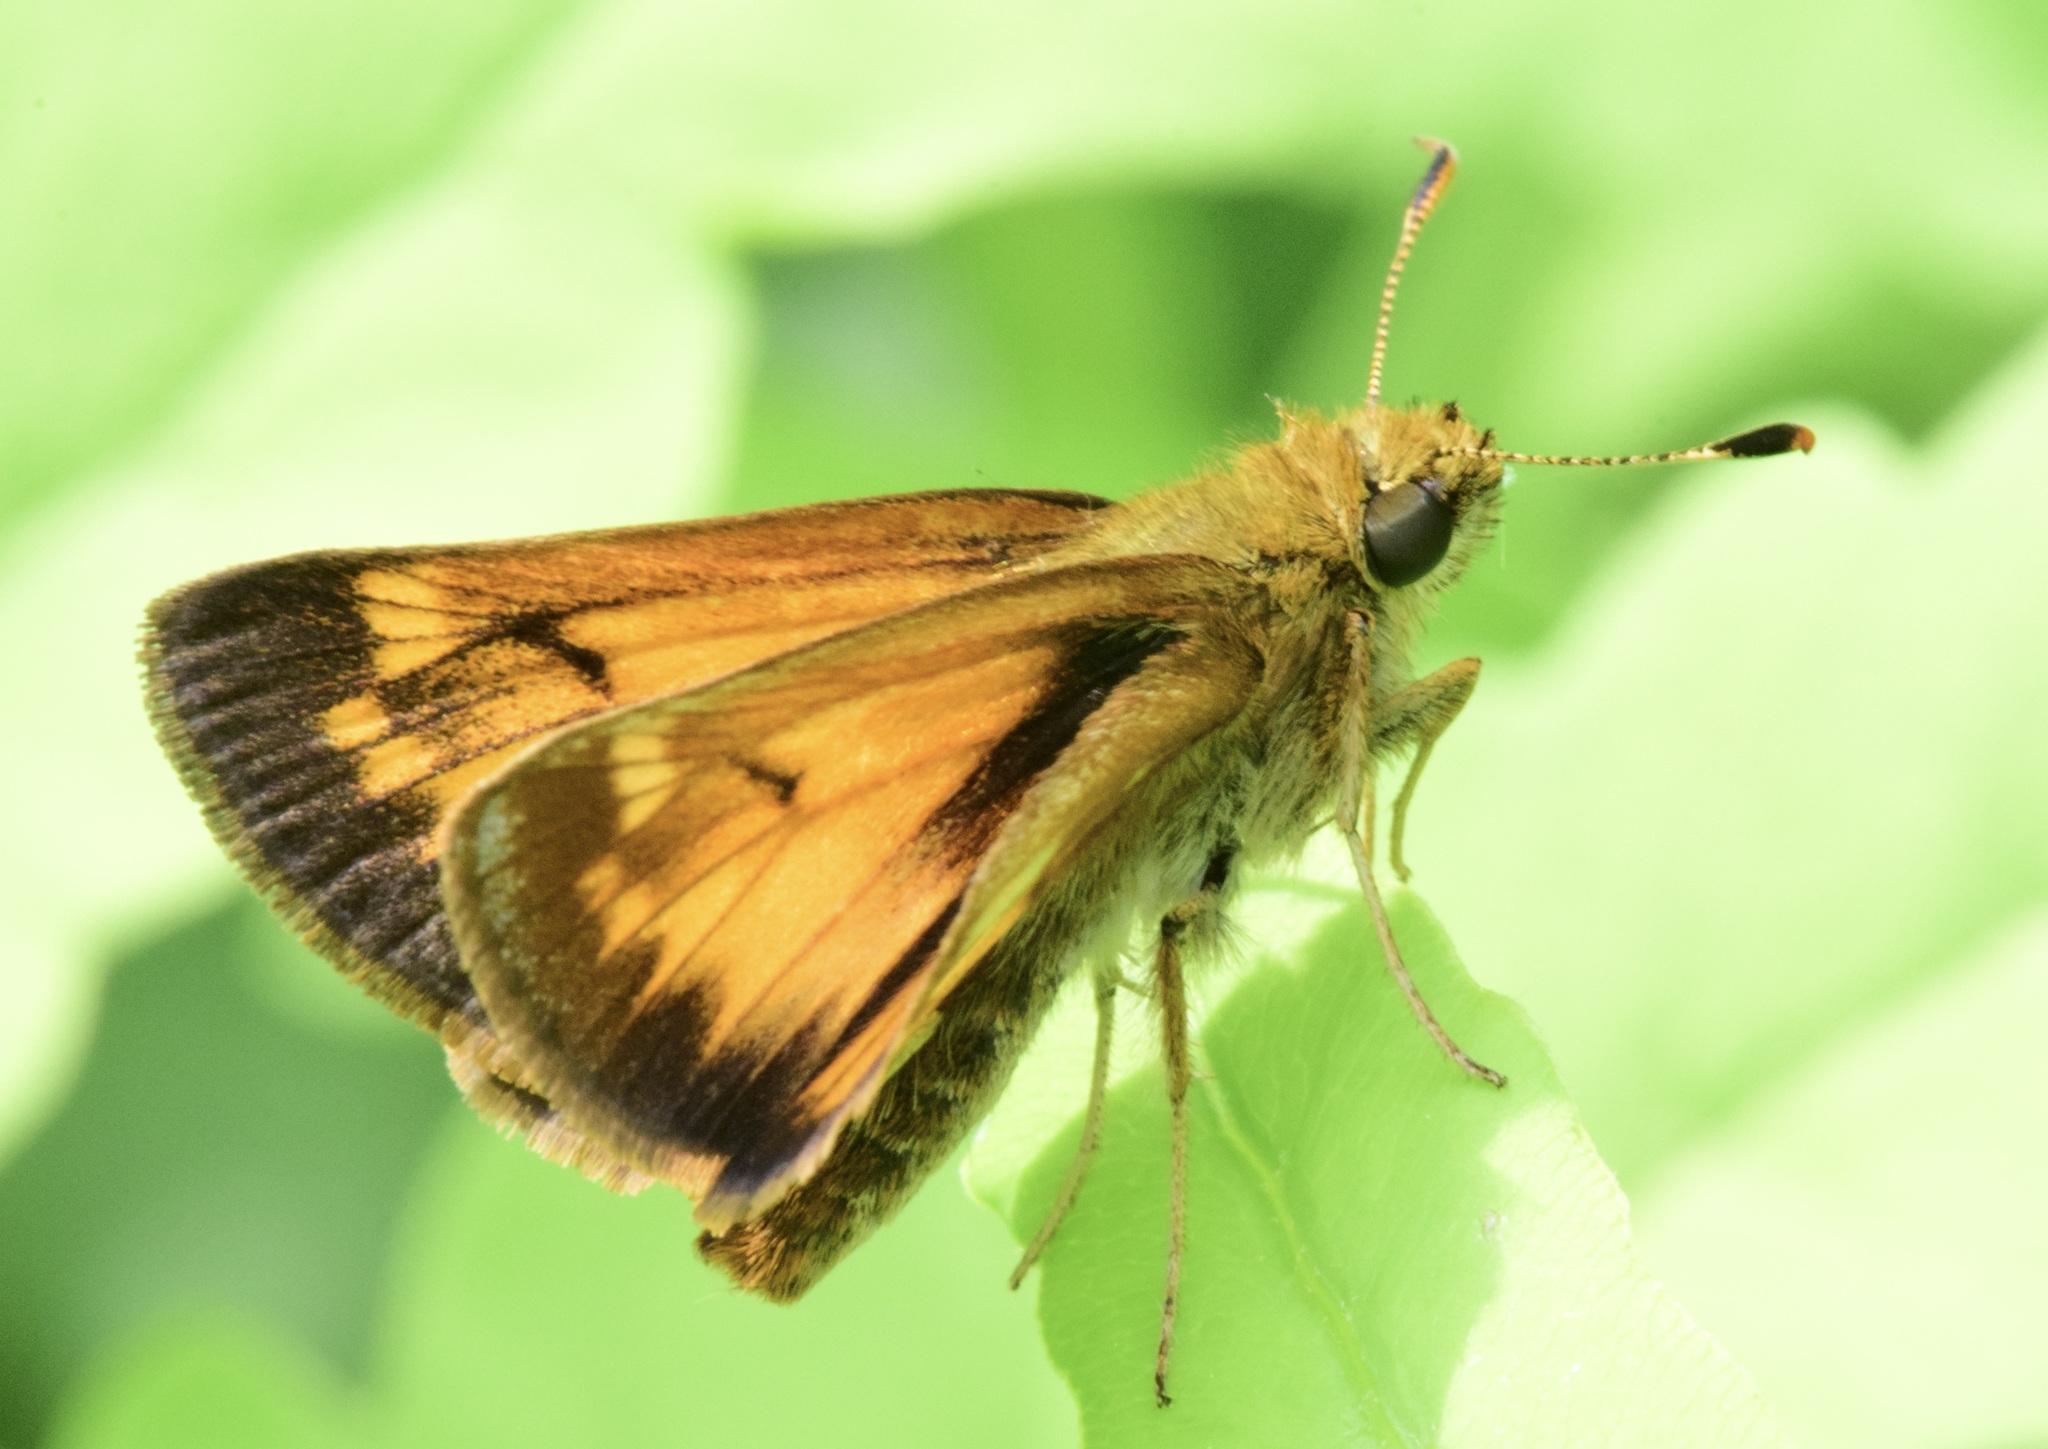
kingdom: Animalia
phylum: Arthropoda
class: Insecta
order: Lepidoptera
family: Hesperiidae
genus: Lon
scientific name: Lon hobomok
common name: Hobomok skipper
